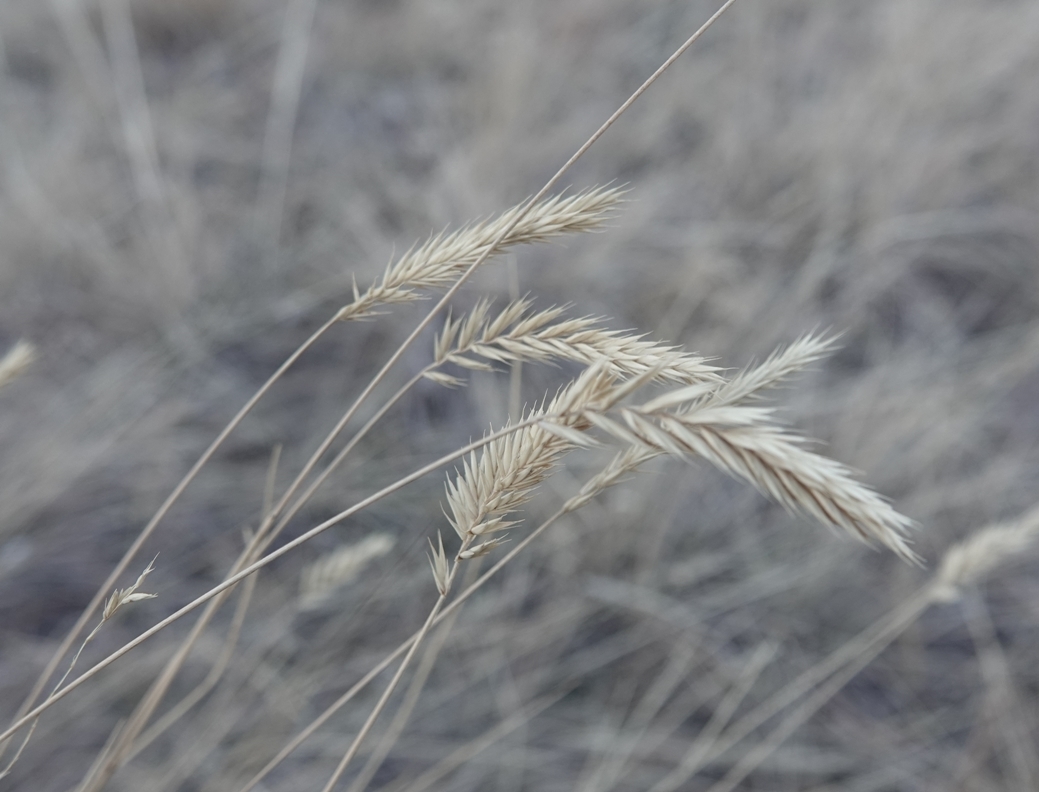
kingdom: Plantae
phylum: Tracheophyta
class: Liliopsida
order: Poales
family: Poaceae
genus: Agropyron
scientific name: Agropyron cristatum
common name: Crested wheatgrass
